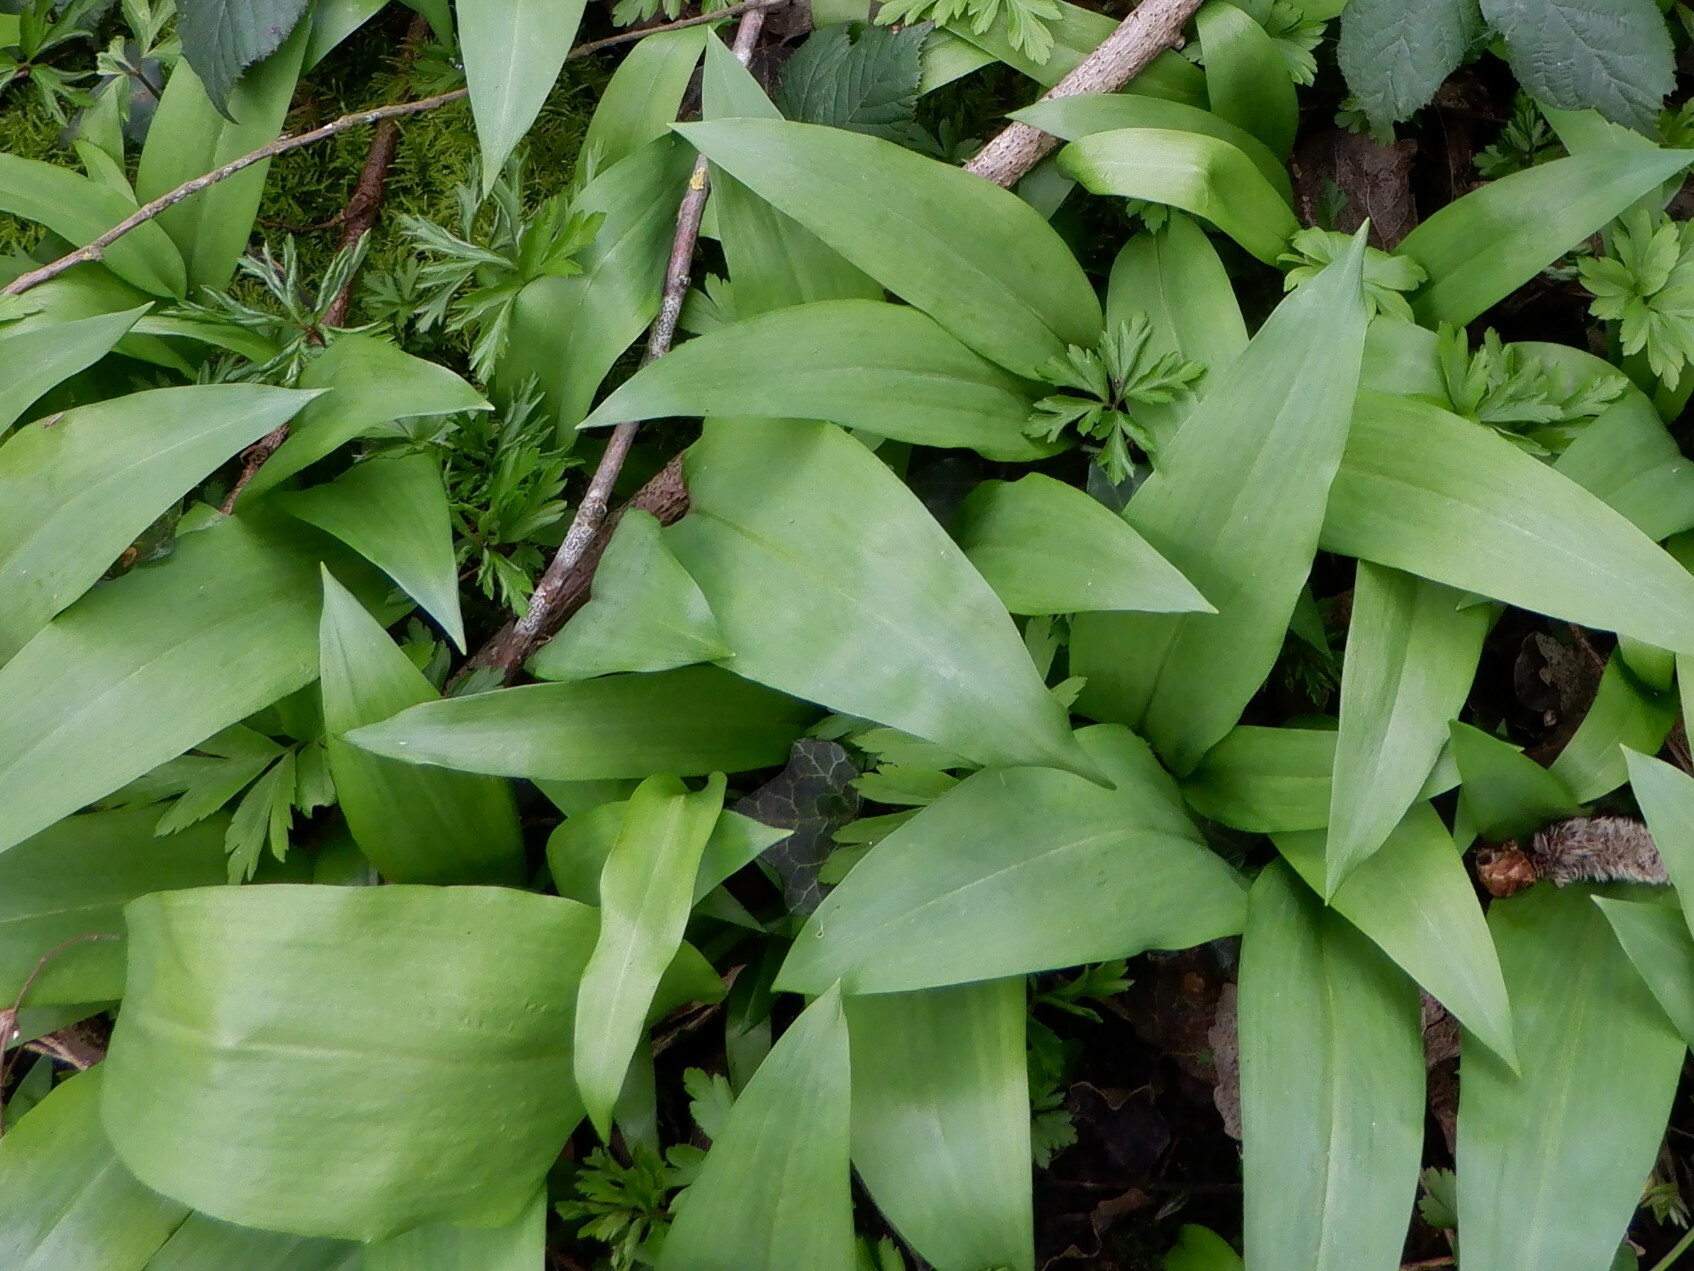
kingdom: Plantae
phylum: Tracheophyta
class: Liliopsida
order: Asparagales
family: Amaryllidaceae
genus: Allium
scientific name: Allium ursinum
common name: Ramsons
